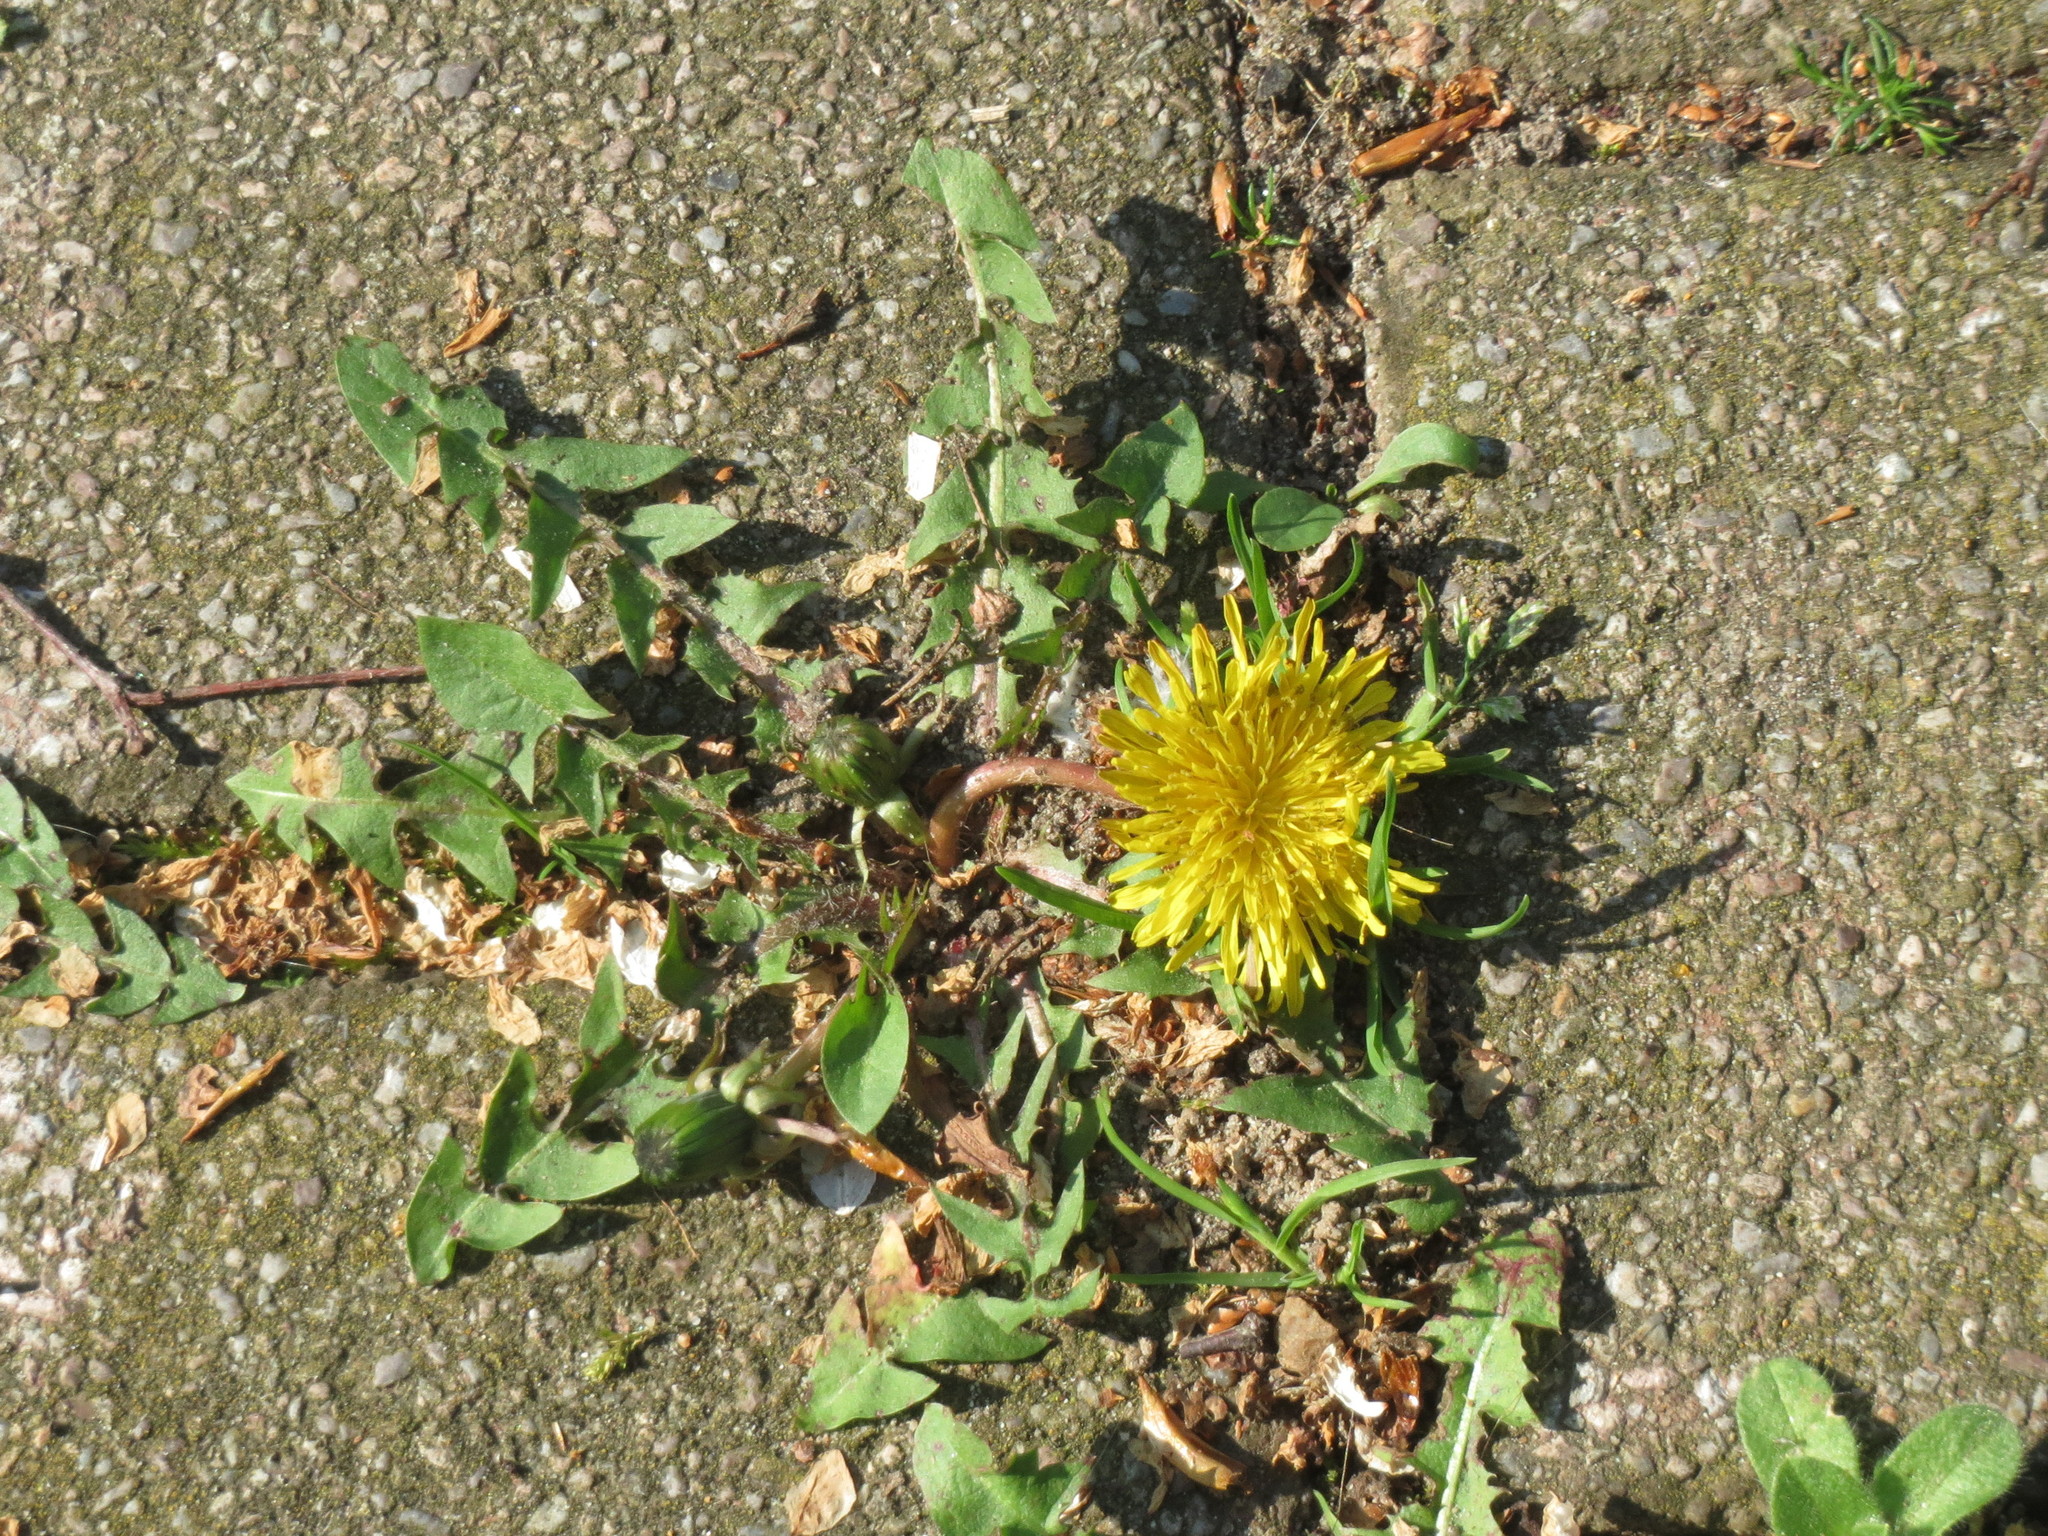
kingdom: Plantae
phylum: Tracheophyta
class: Magnoliopsida
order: Asterales
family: Asteraceae
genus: Taraxacum
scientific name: Taraxacum officinale
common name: Common dandelion
